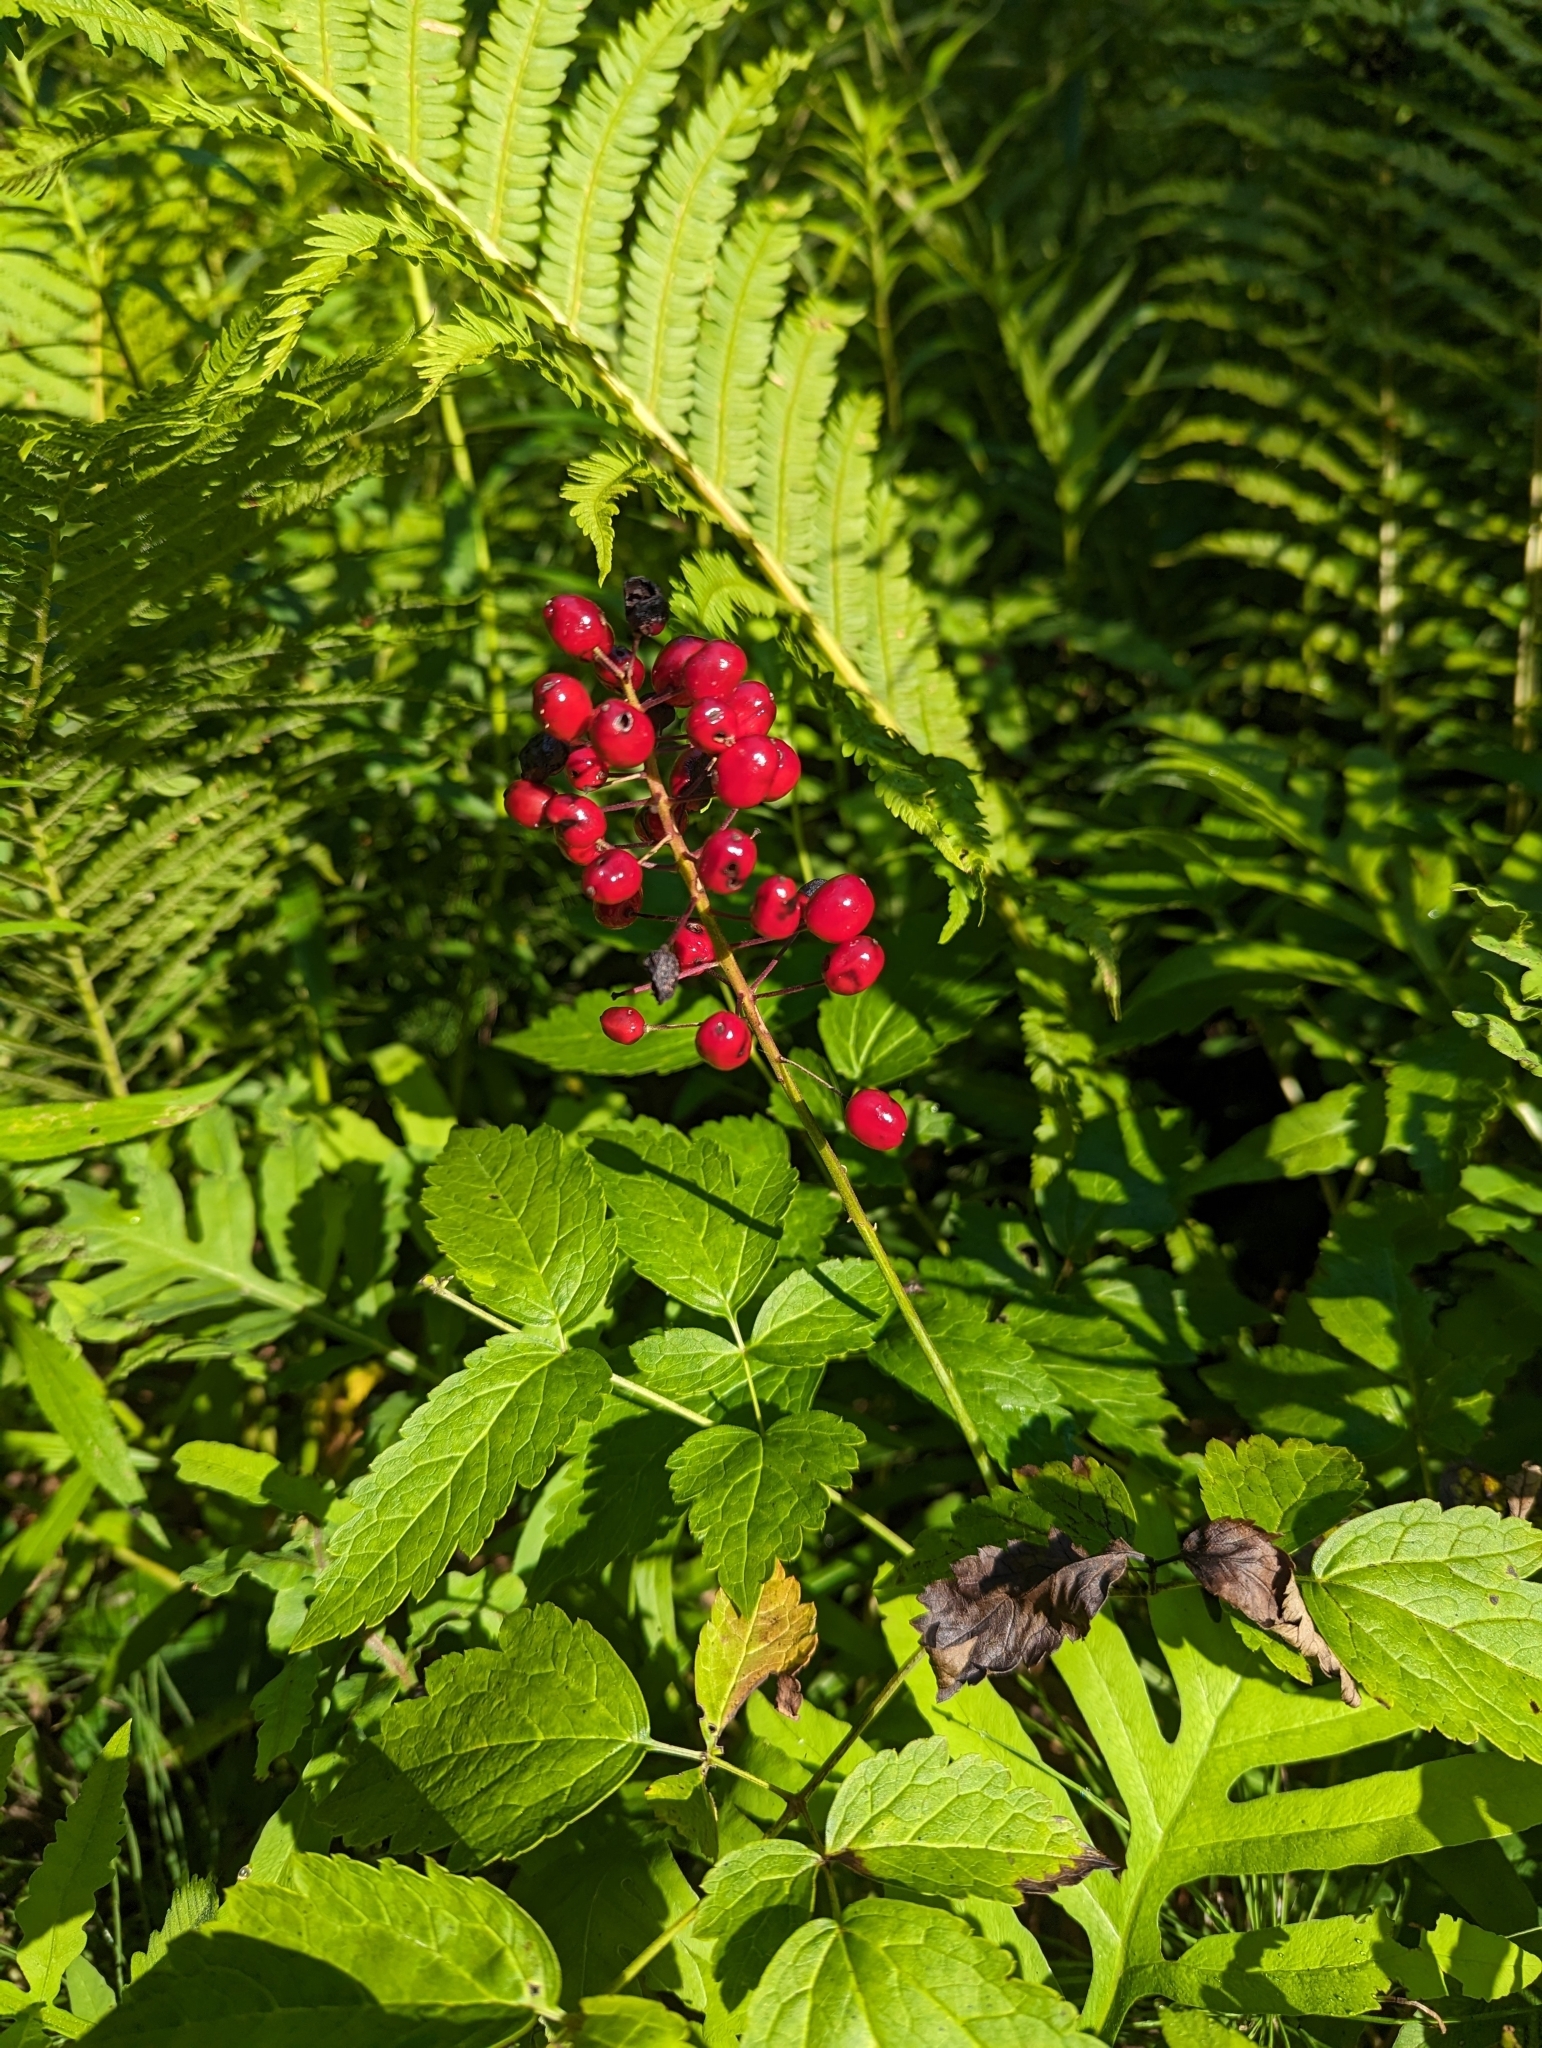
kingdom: Plantae
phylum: Tracheophyta
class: Magnoliopsida
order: Ranunculales
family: Ranunculaceae
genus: Actaea
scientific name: Actaea rubra
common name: Red baneberry
